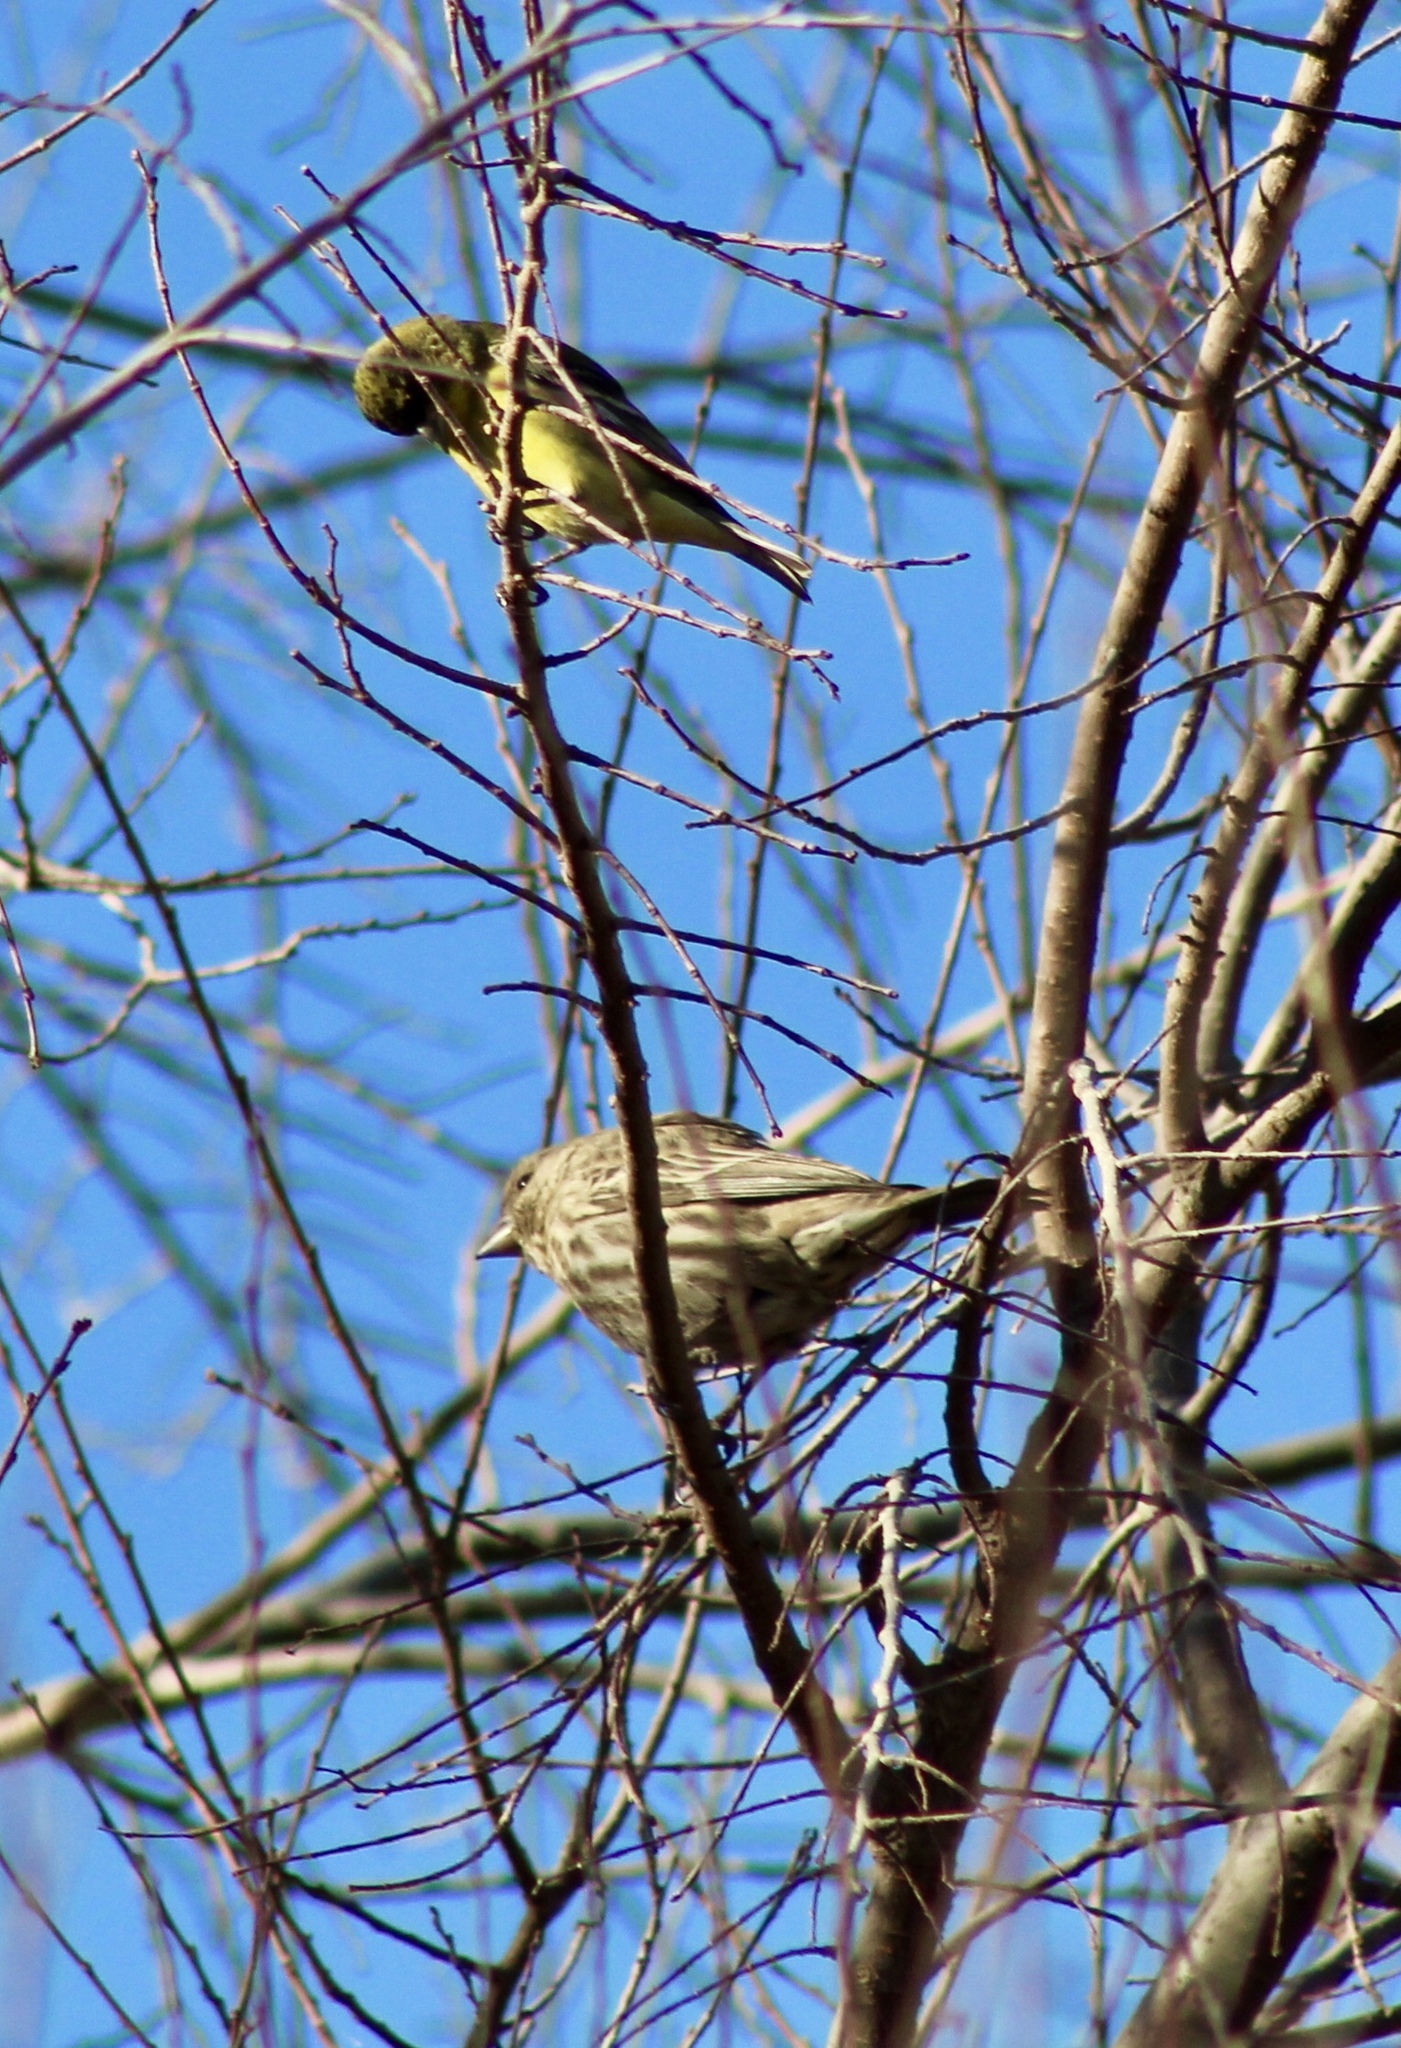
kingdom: Animalia
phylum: Chordata
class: Aves
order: Passeriformes
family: Fringillidae
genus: Spinus
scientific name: Spinus psaltria
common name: Lesser goldfinch
